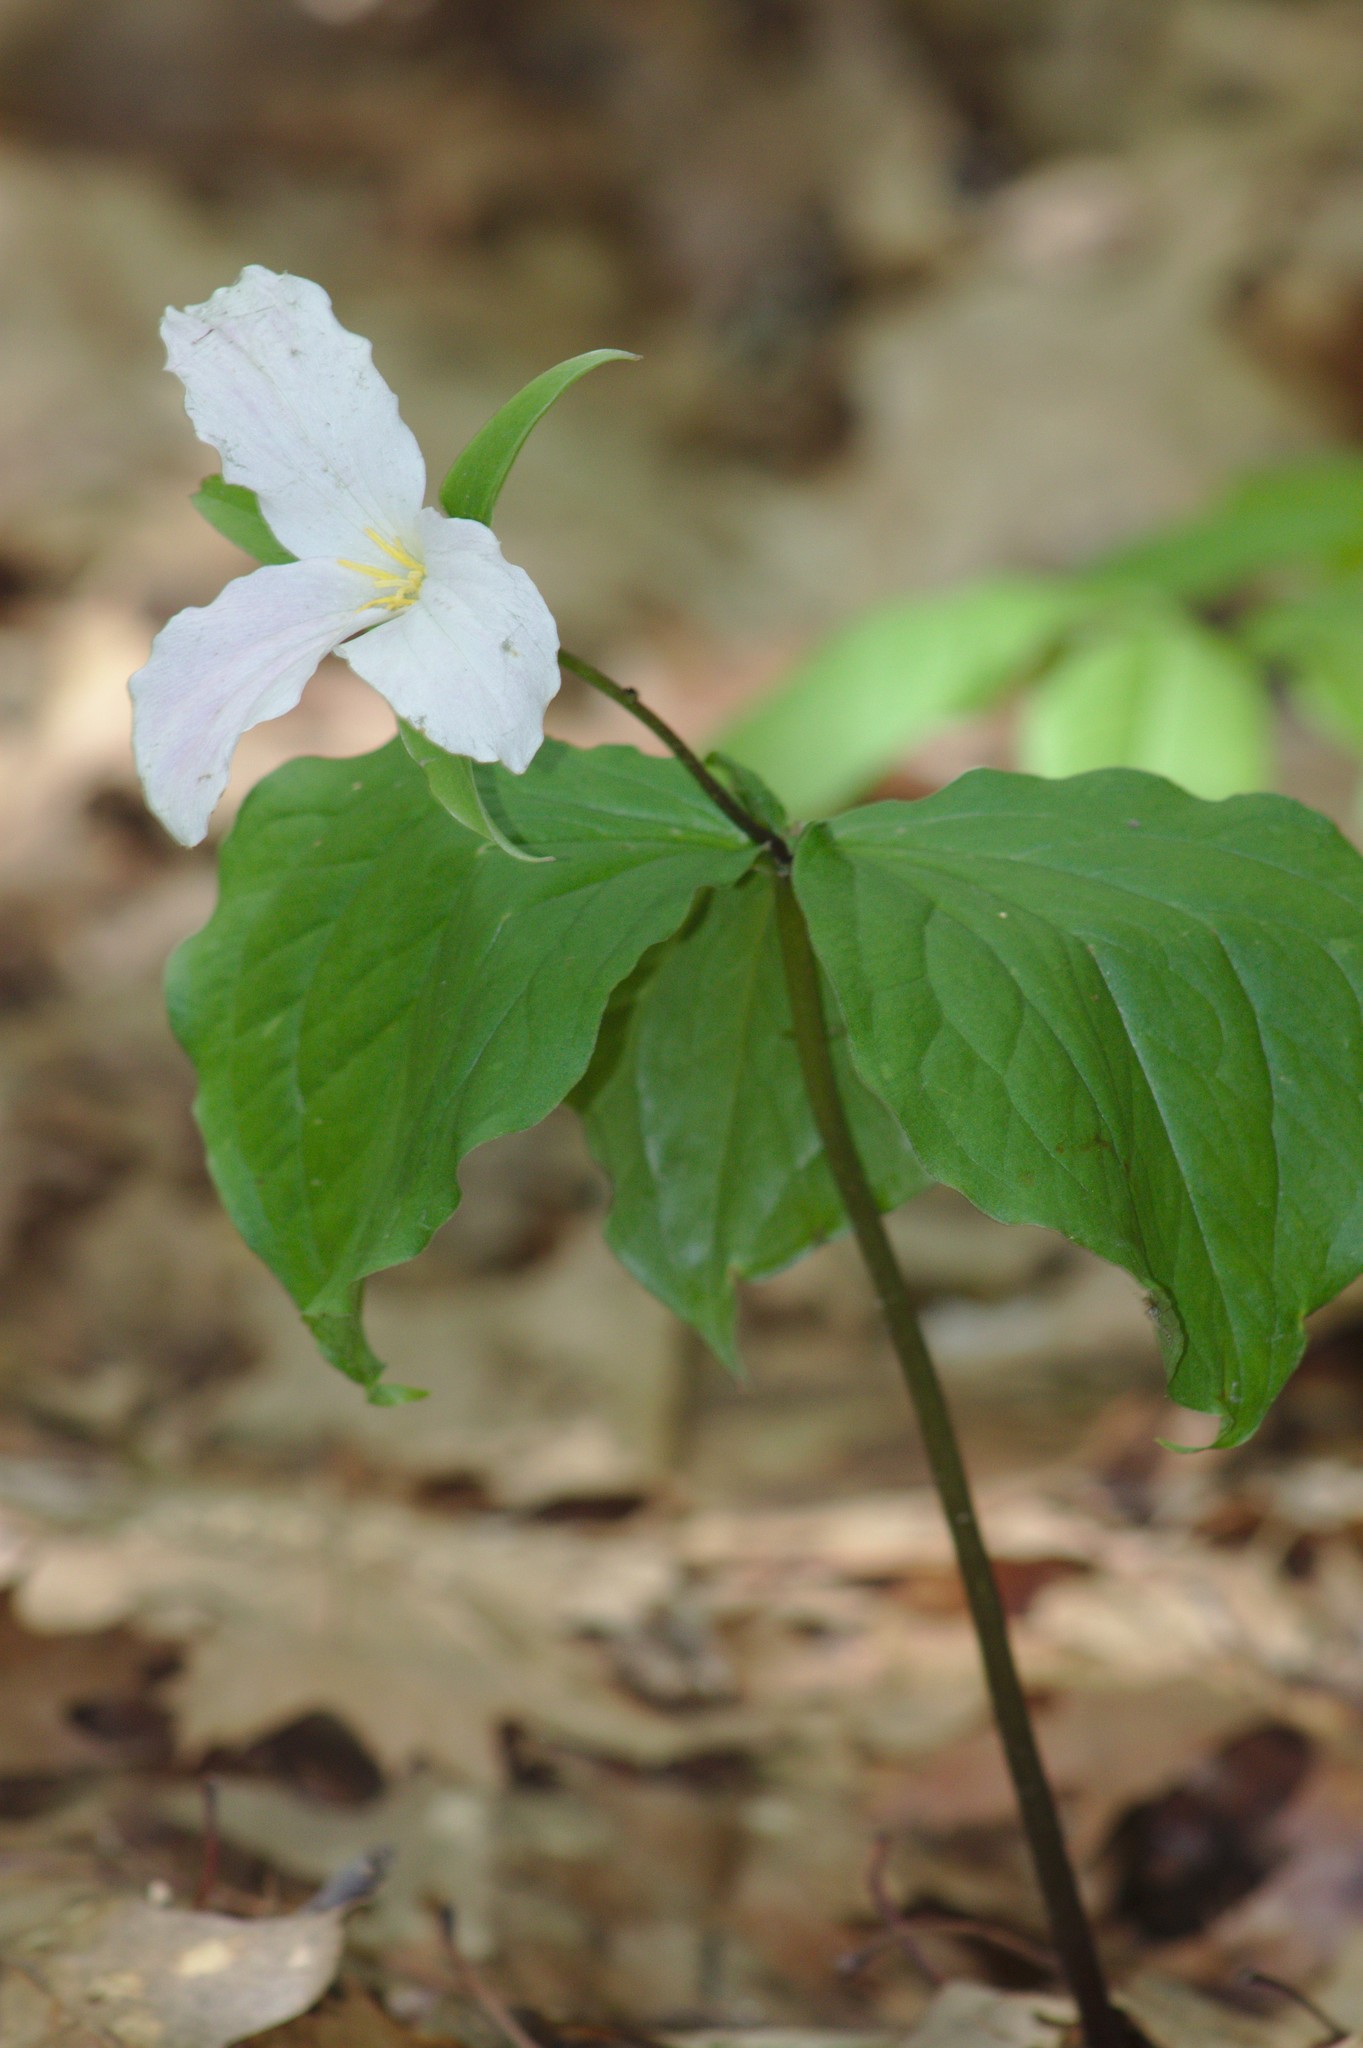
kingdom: Plantae
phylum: Tracheophyta
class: Liliopsida
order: Liliales
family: Melanthiaceae
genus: Trillium
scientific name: Trillium grandiflorum
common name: Great white trillium
